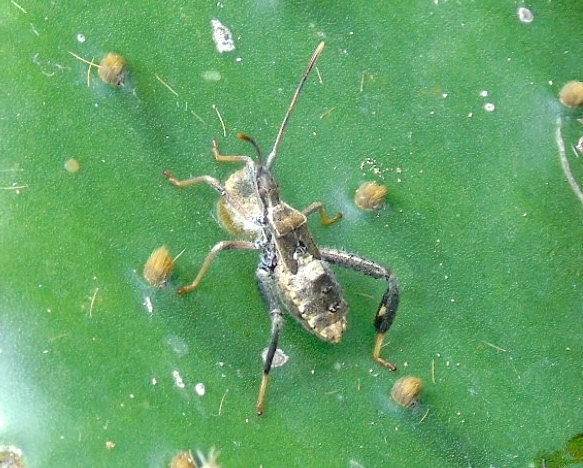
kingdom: Animalia
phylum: Arthropoda
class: Insecta
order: Hemiptera
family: Coreidae
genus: Narnia
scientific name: Narnia
